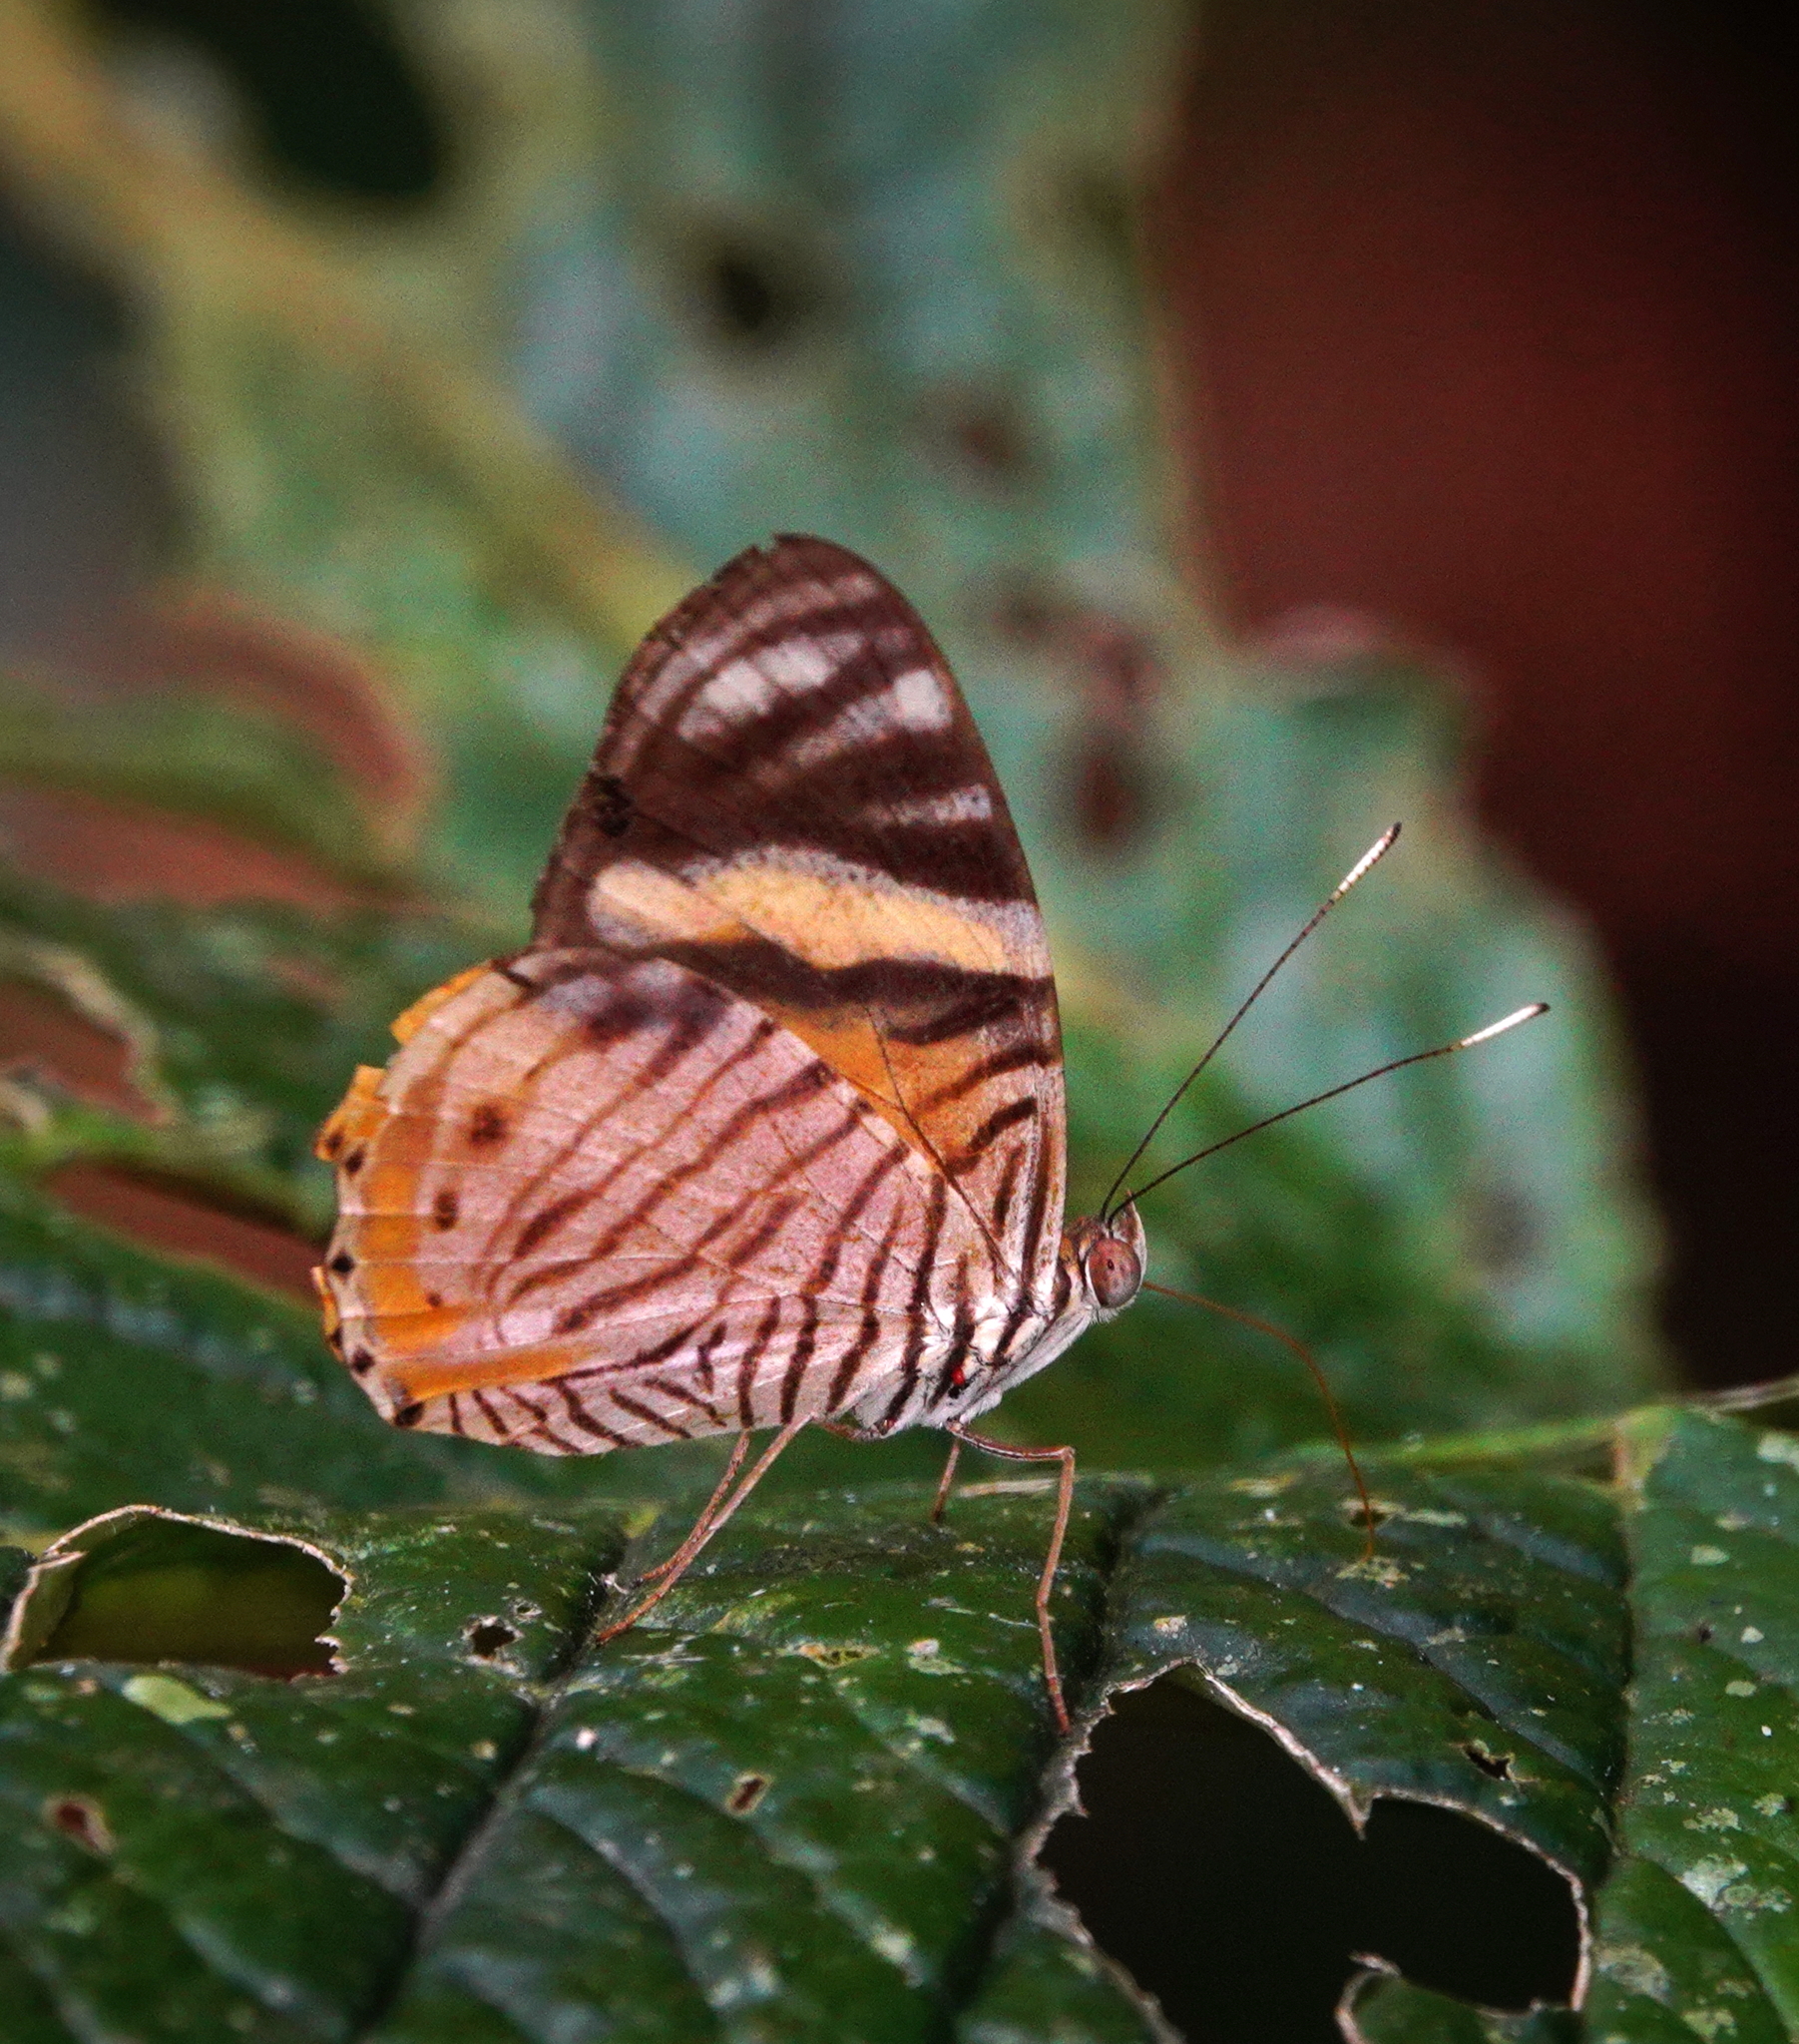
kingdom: Animalia
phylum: Arthropoda
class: Insecta
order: Lepidoptera
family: Nymphalidae
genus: Callizona
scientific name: Callizona acesta
